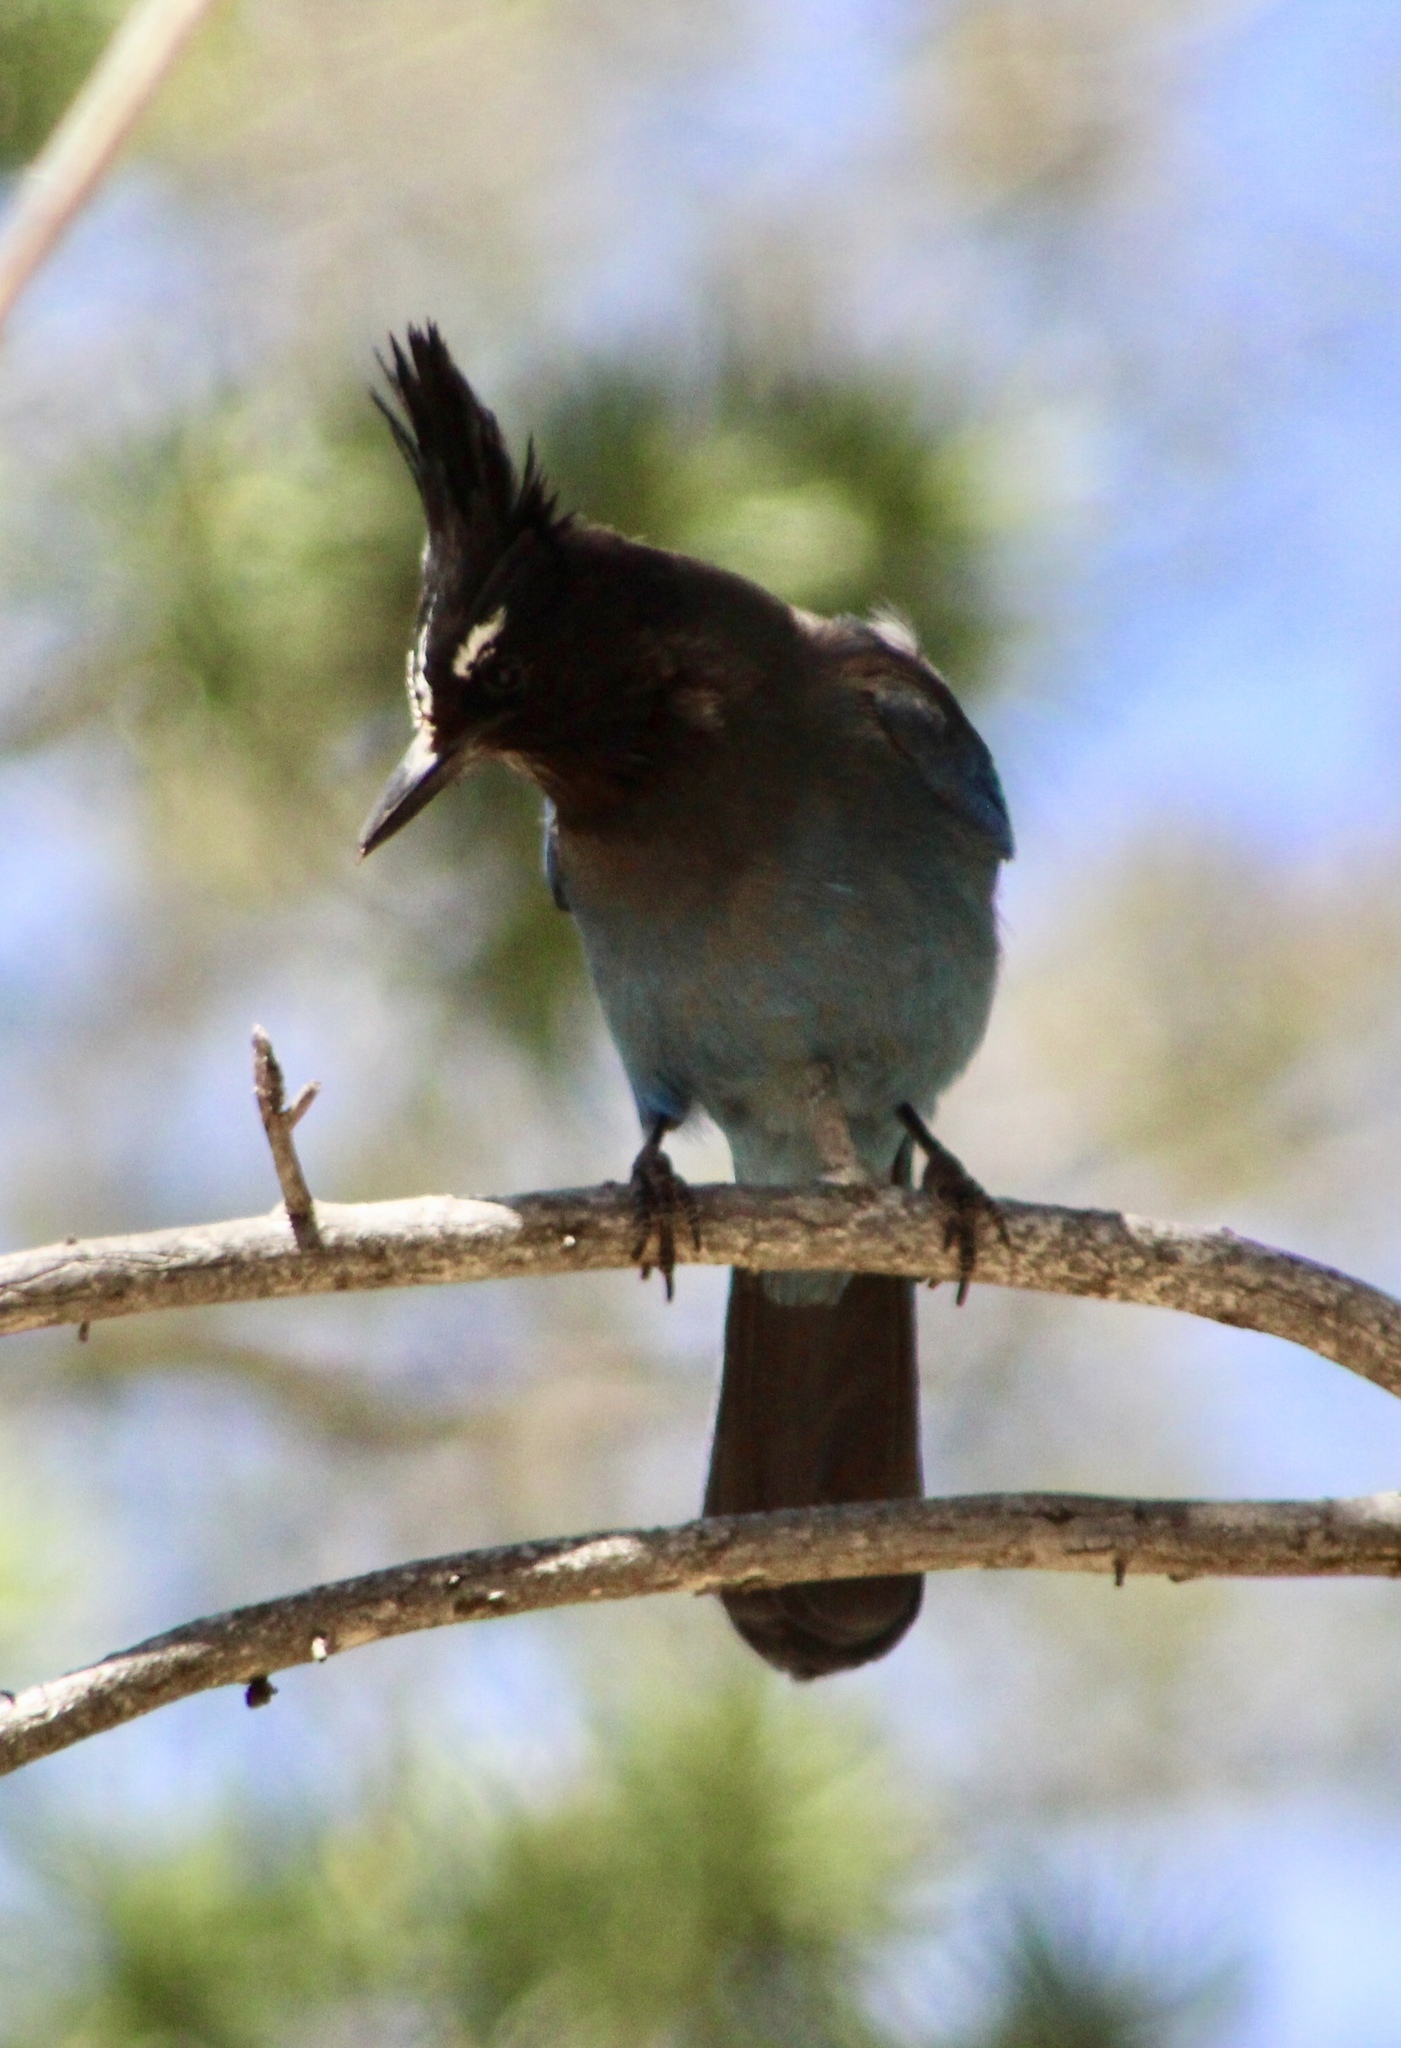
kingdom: Animalia
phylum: Chordata
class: Aves
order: Passeriformes
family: Corvidae
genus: Cyanocitta
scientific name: Cyanocitta stelleri
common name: Steller's jay
